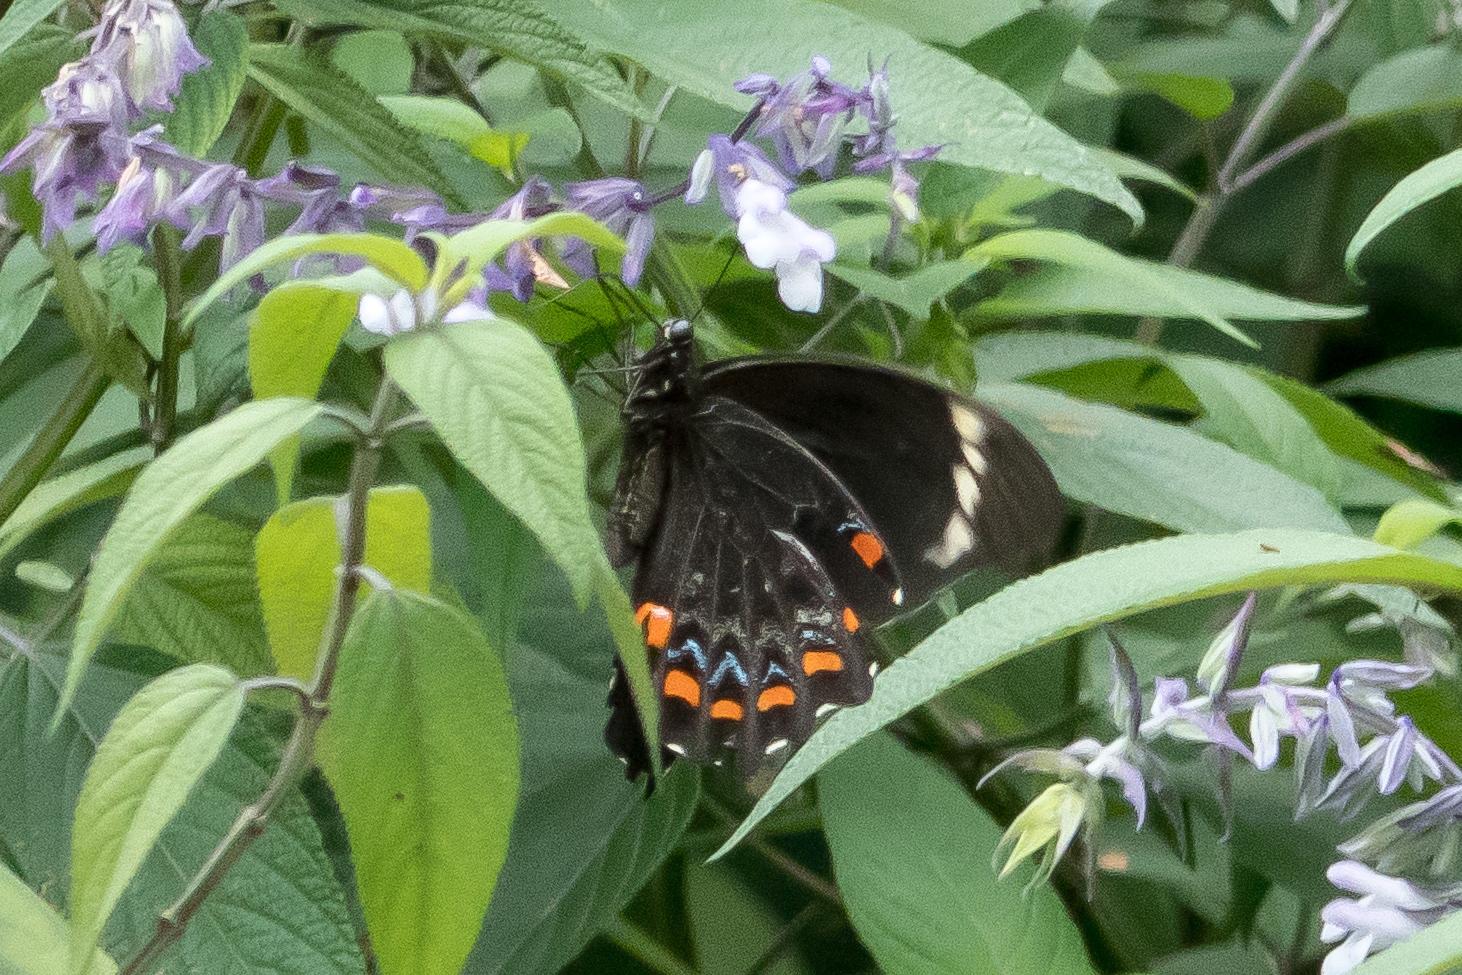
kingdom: Animalia
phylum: Arthropoda
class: Insecta
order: Lepidoptera
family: Papilionidae
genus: Papilio
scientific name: Papilio aegeus
